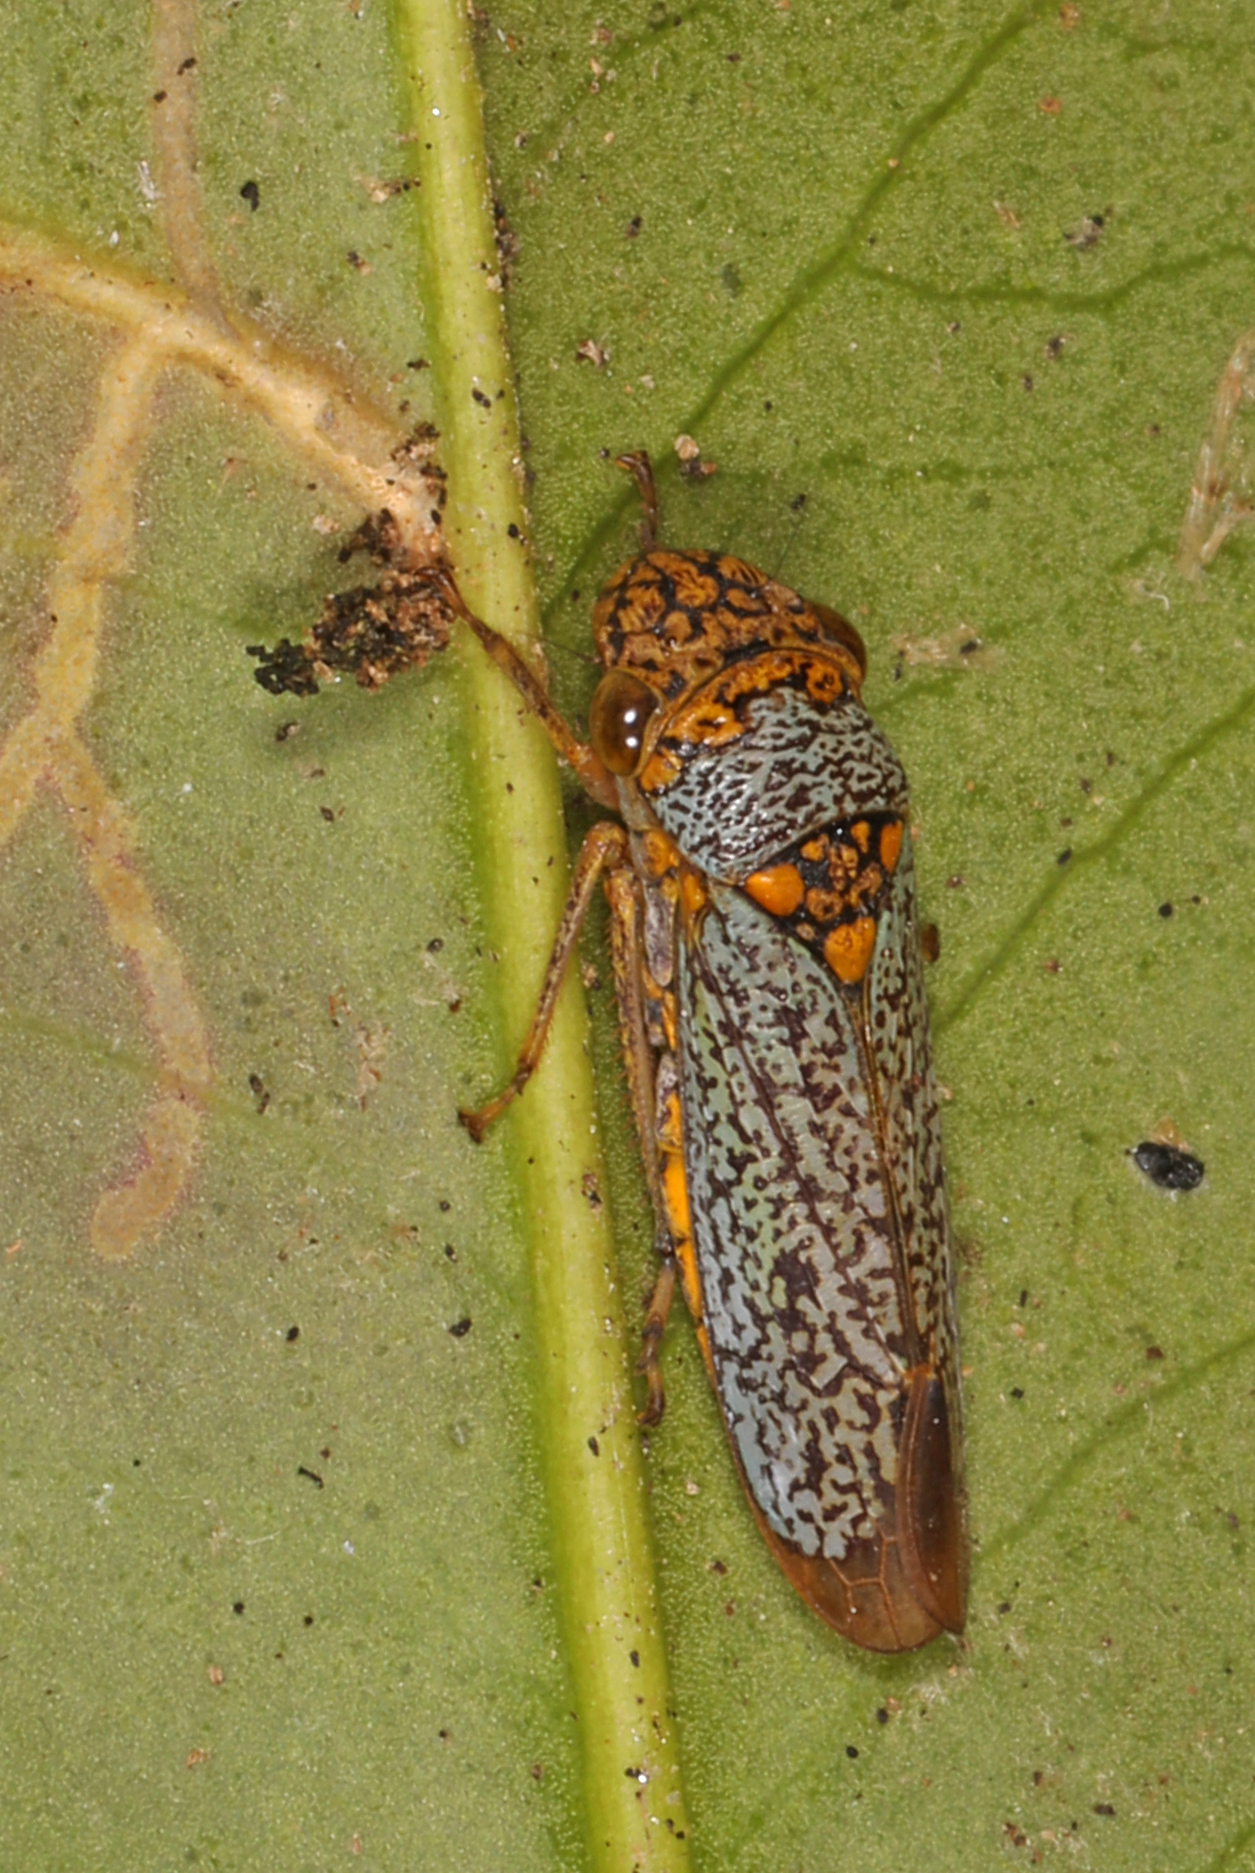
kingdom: Animalia
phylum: Arthropoda
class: Insecta
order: Hemiptera
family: Cicadellidae
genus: Oncometopia
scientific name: Oncometopia orbona
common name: Broad-headed sharpshooter
